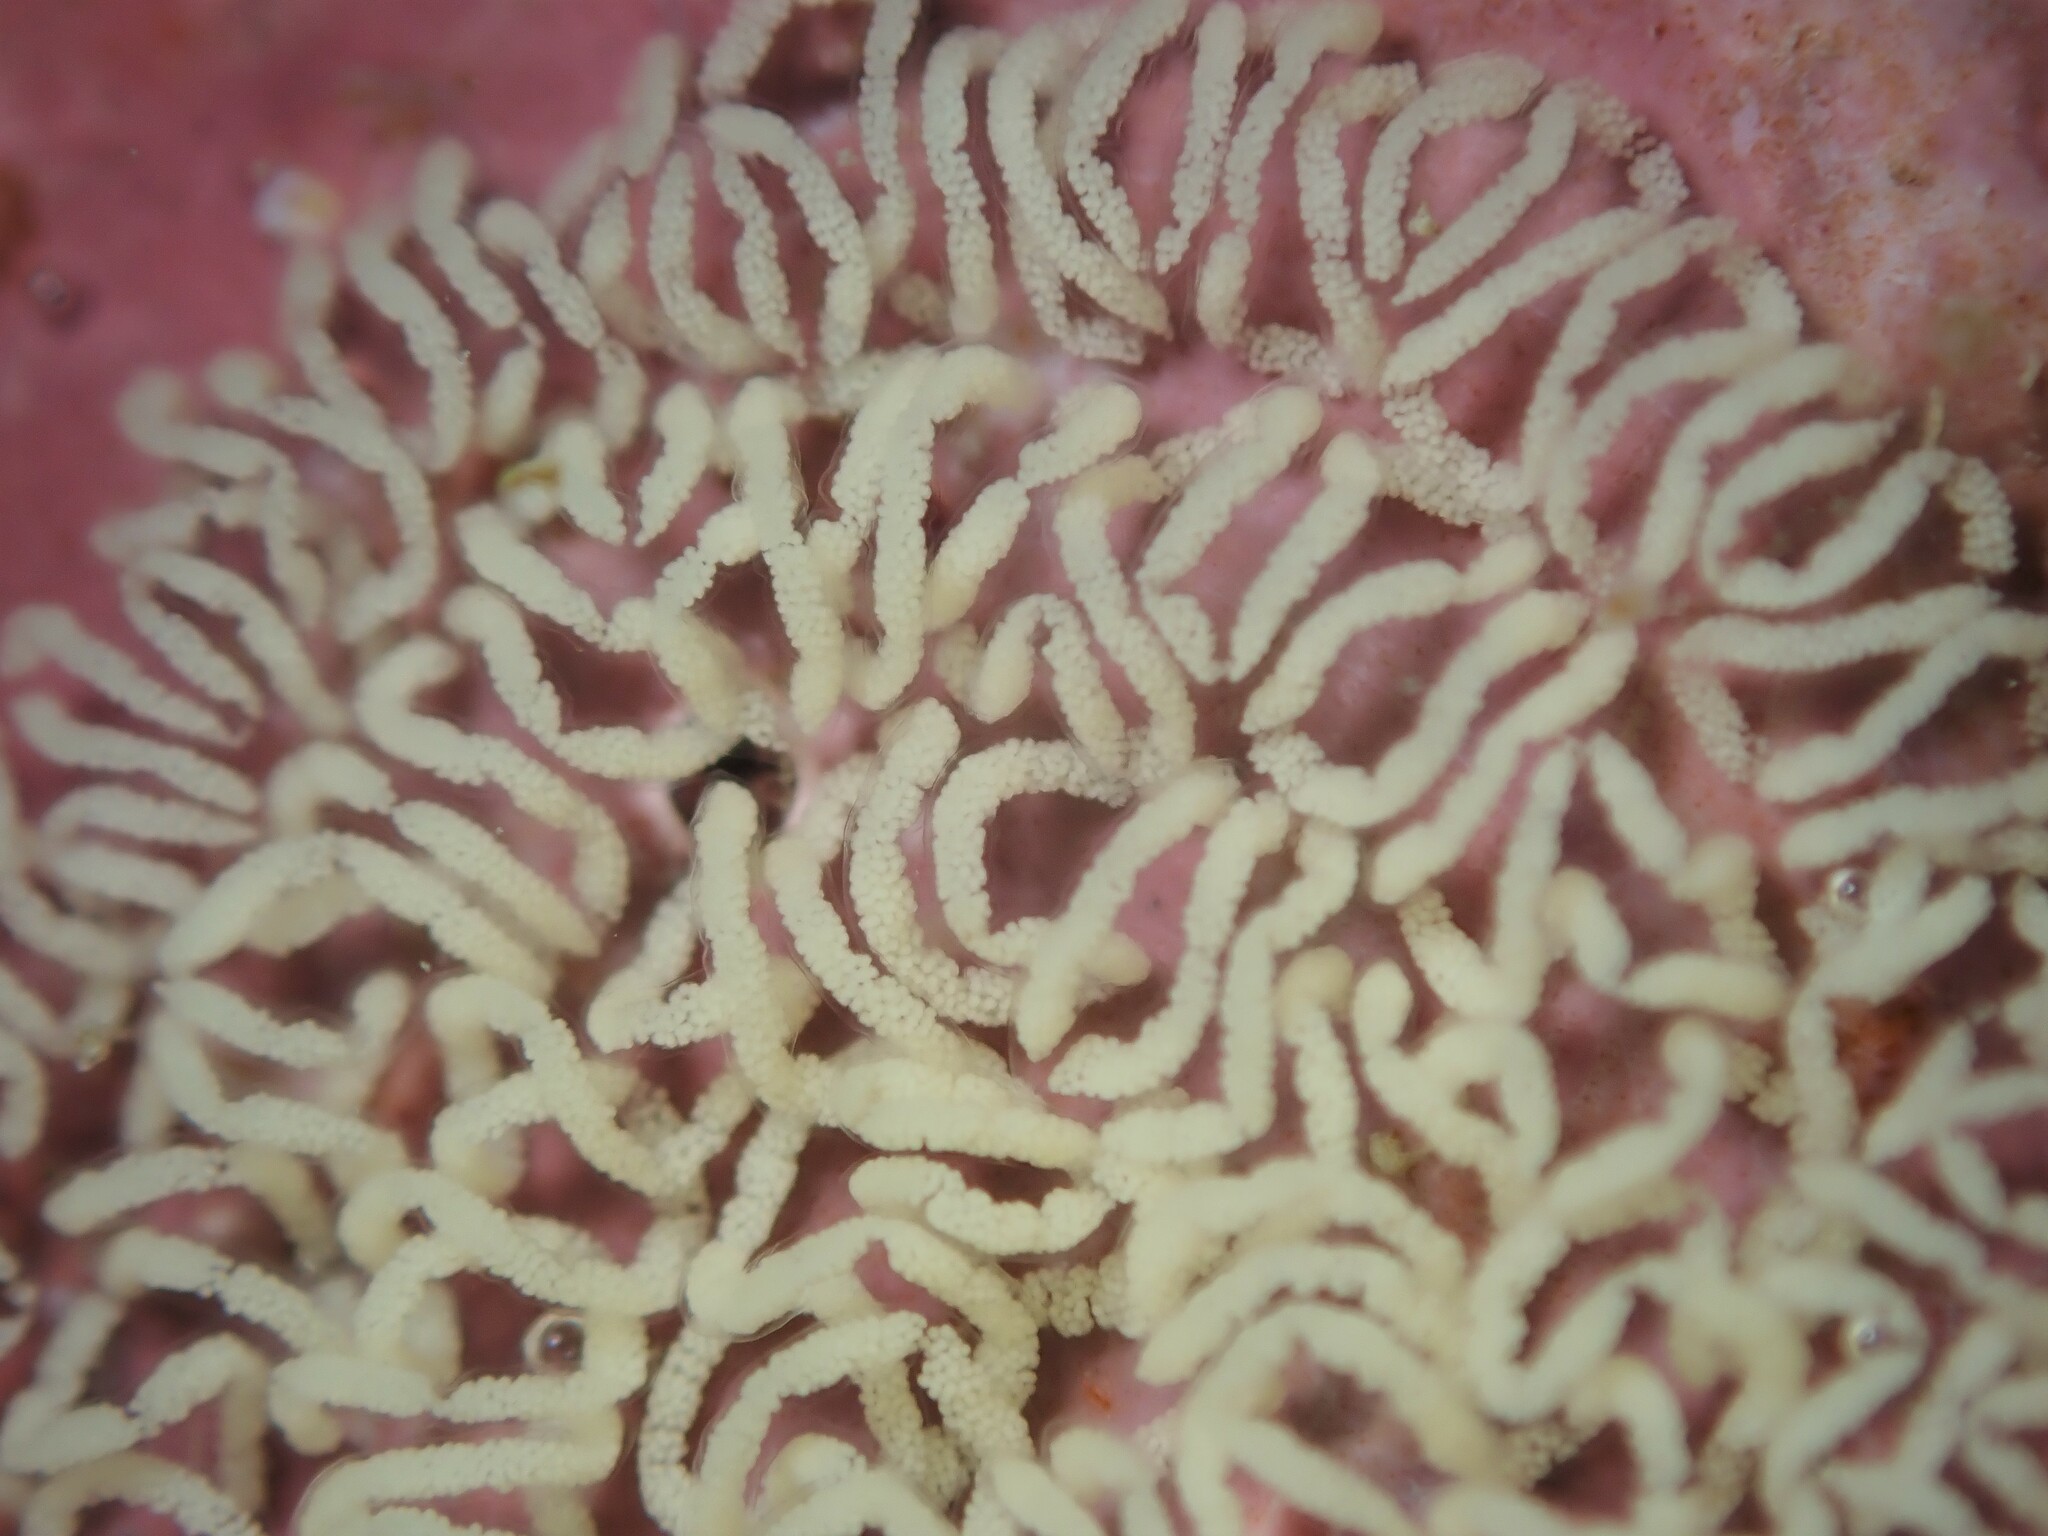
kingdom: Animalia
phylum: Mollusca
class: Gastropoda
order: Nudibranchia
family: Tritoniidae
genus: Tritonia
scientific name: Tritonia flemingi
